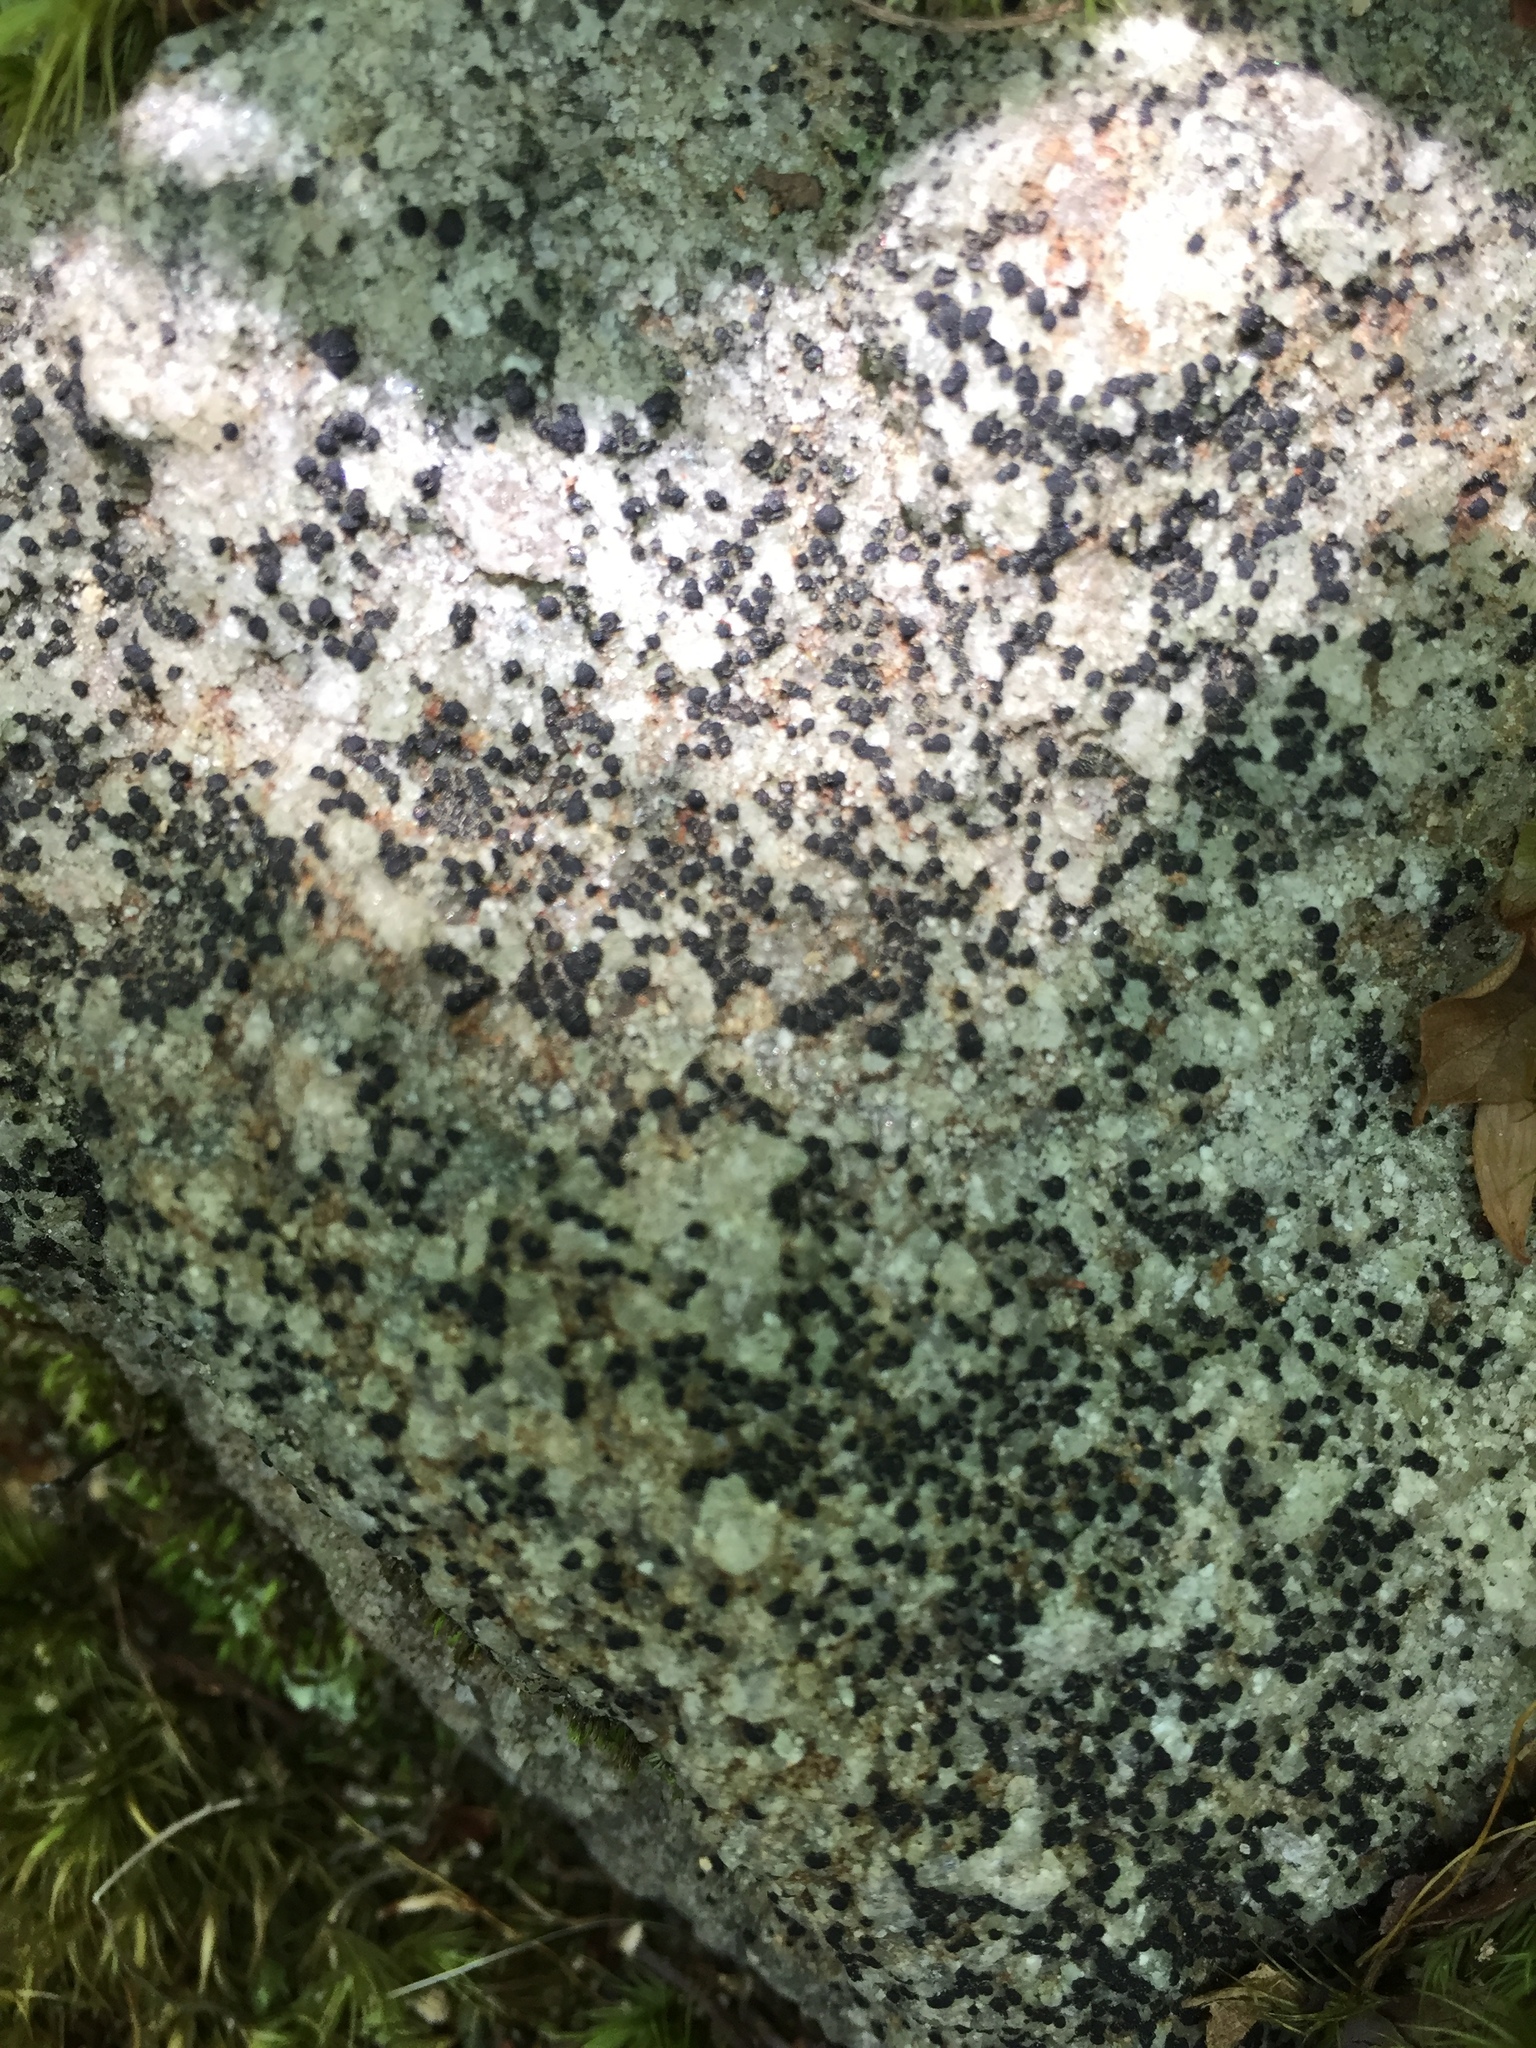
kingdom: Fungi
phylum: Ascomycota
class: Lecanoromycetes
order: Acarosporales
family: Acarosporaceae
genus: Acarospora
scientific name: Acarospora privigna
